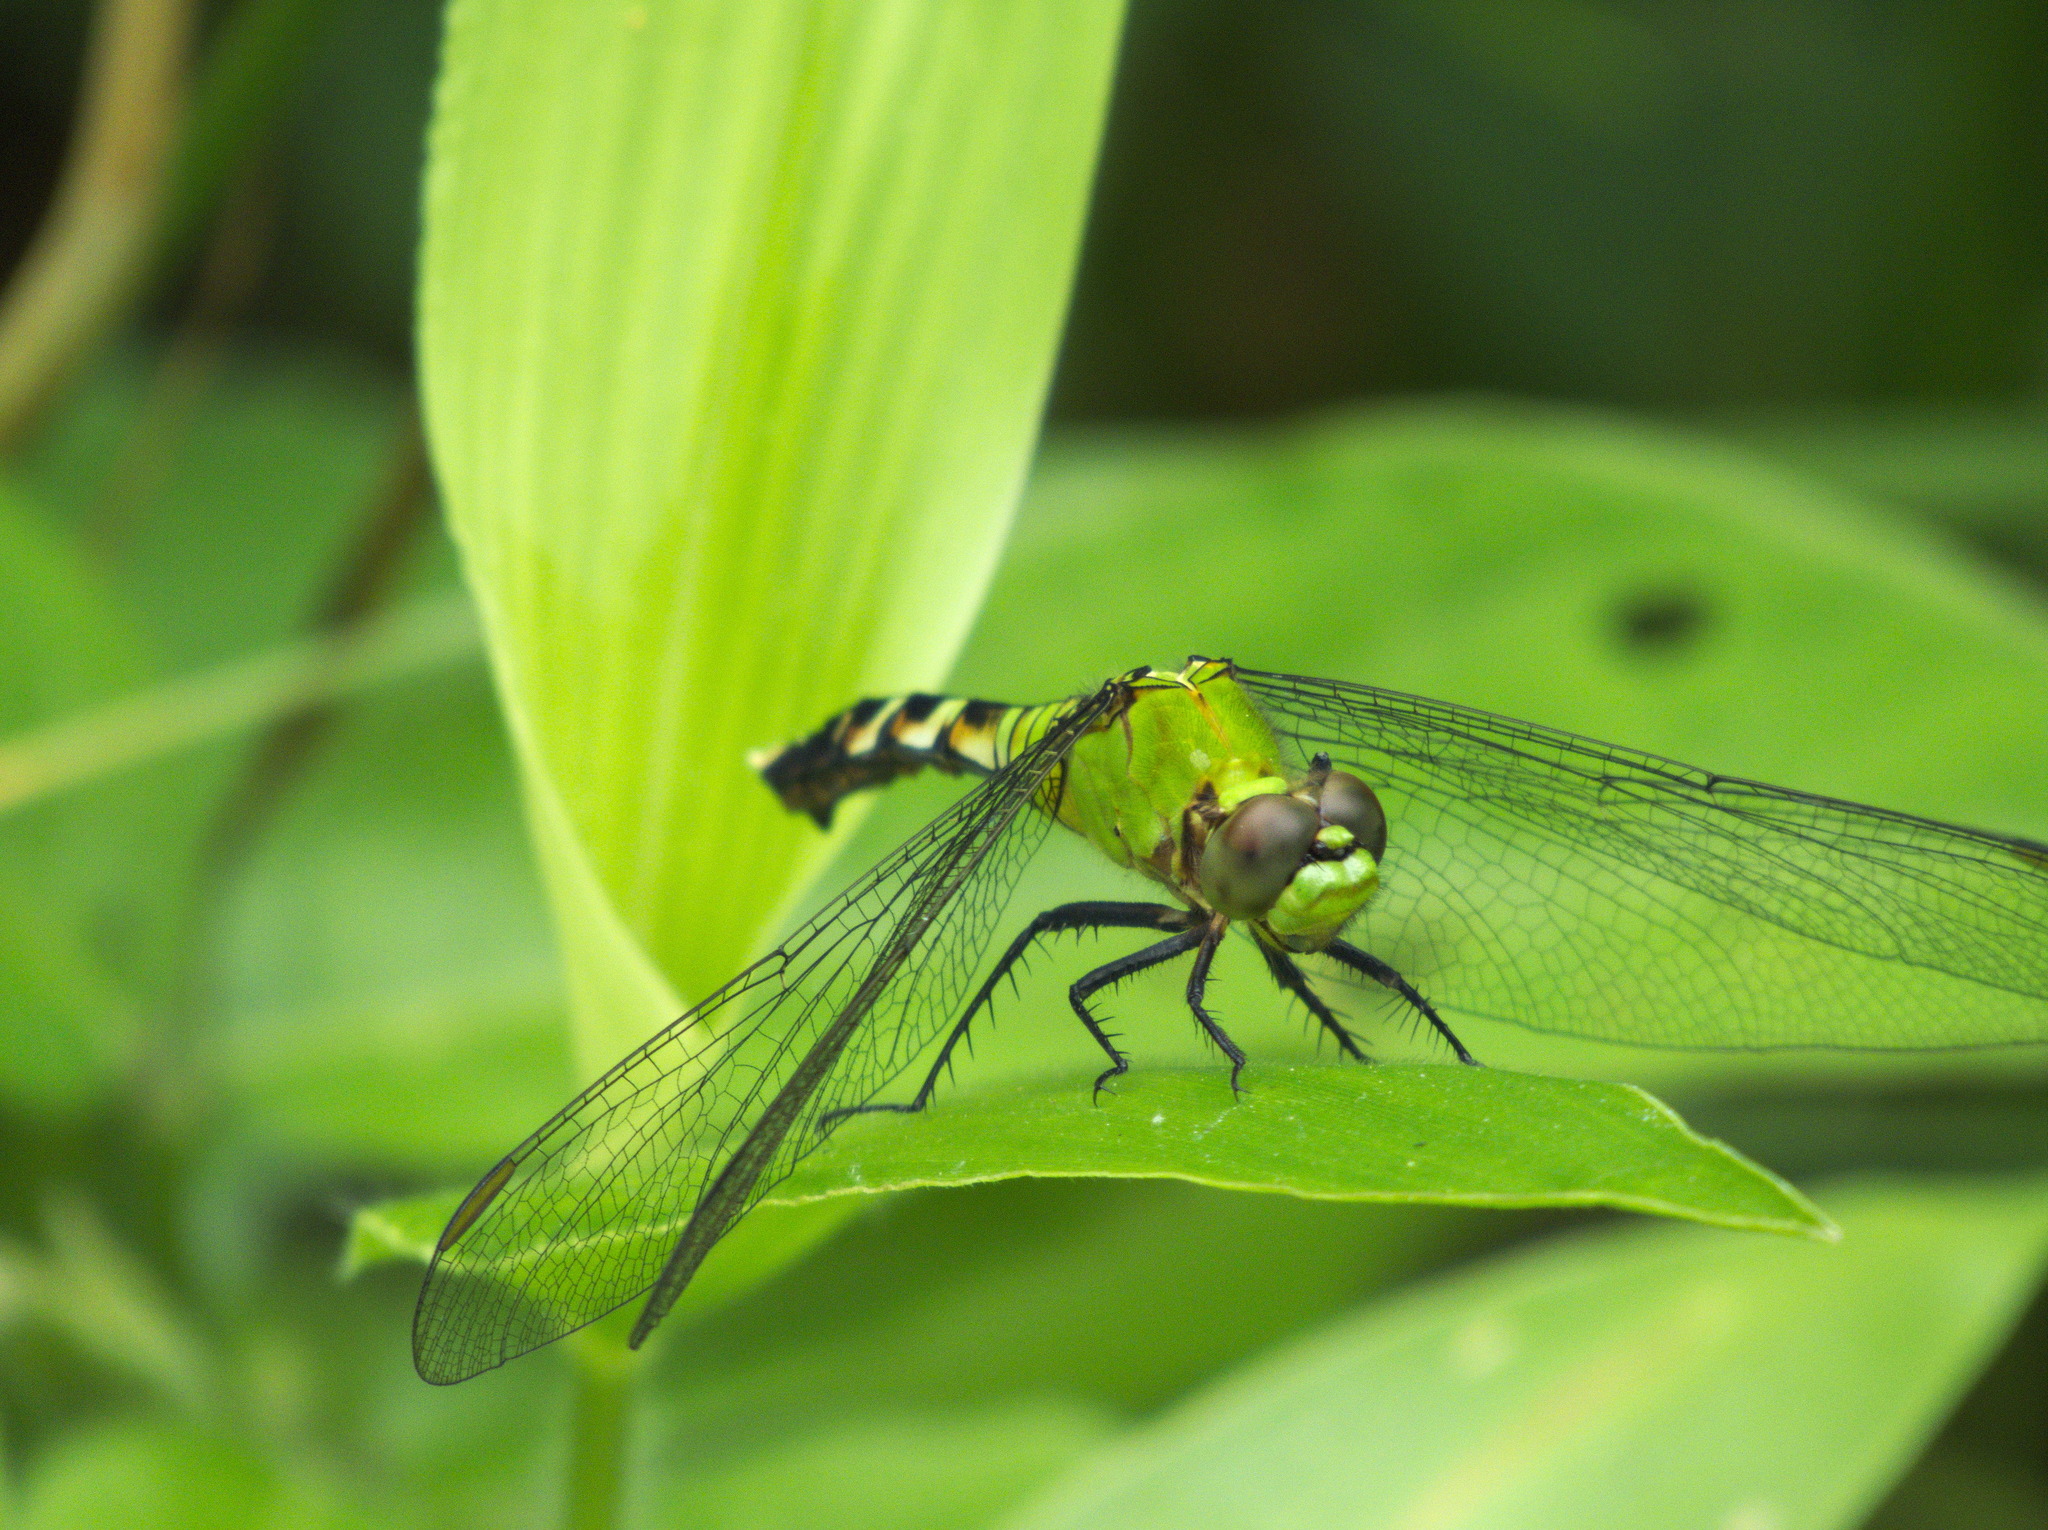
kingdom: Animalia
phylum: Arthropoda
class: Insecta
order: Odonata
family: Libellulidae
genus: Erythemis
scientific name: Erythemis simplicicollis
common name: Eastern pondhawk
